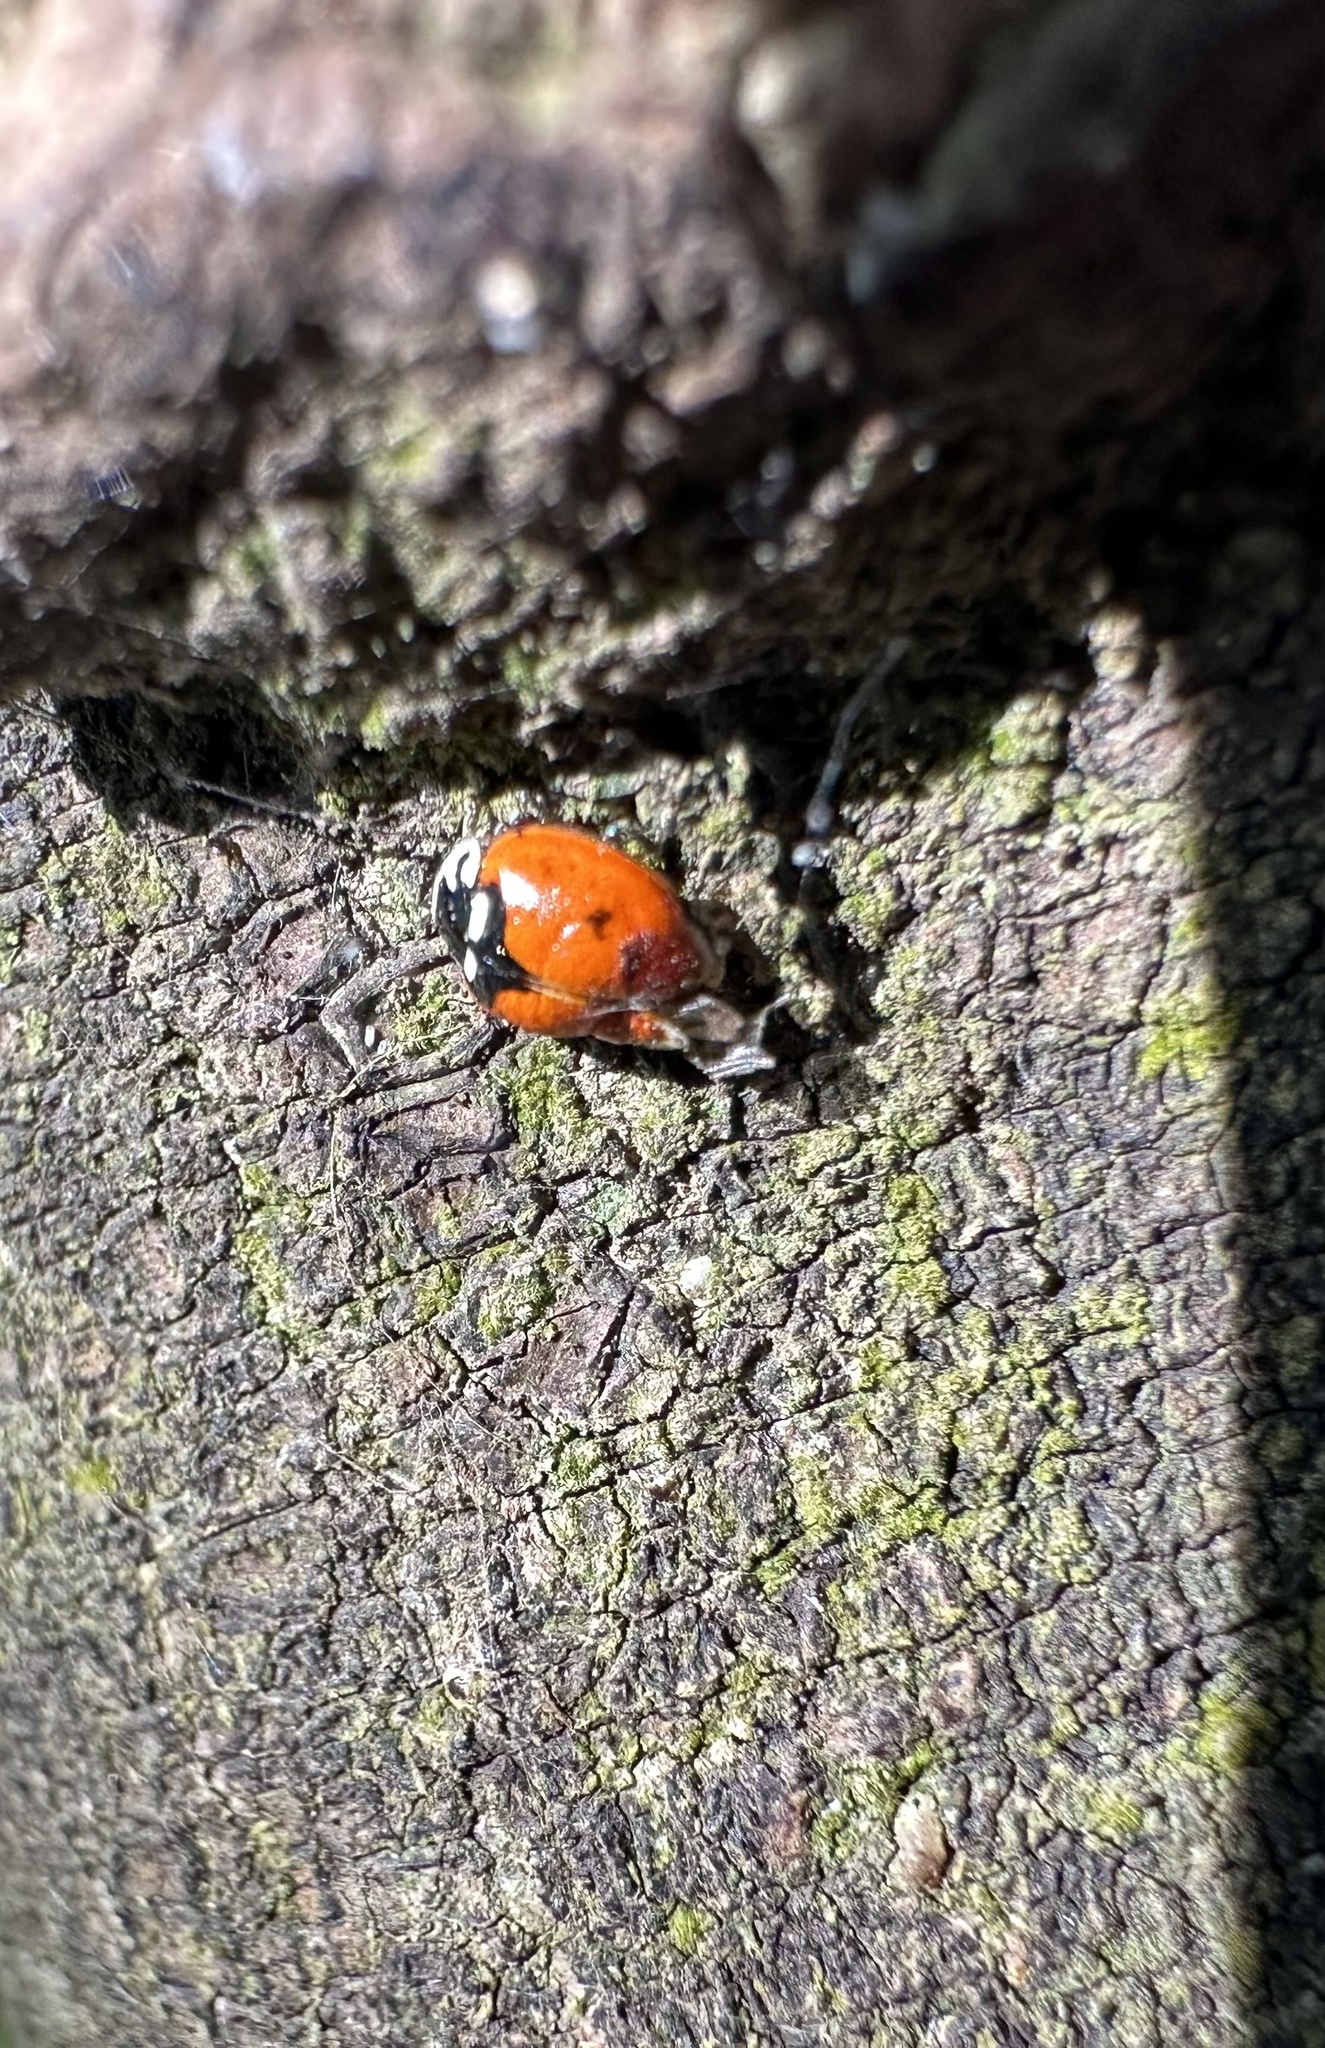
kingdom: Animalia
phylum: Arthropoda
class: Insecta
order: Coleoptera
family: Coccinellidae
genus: Adalia
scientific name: Adalia deficiens
